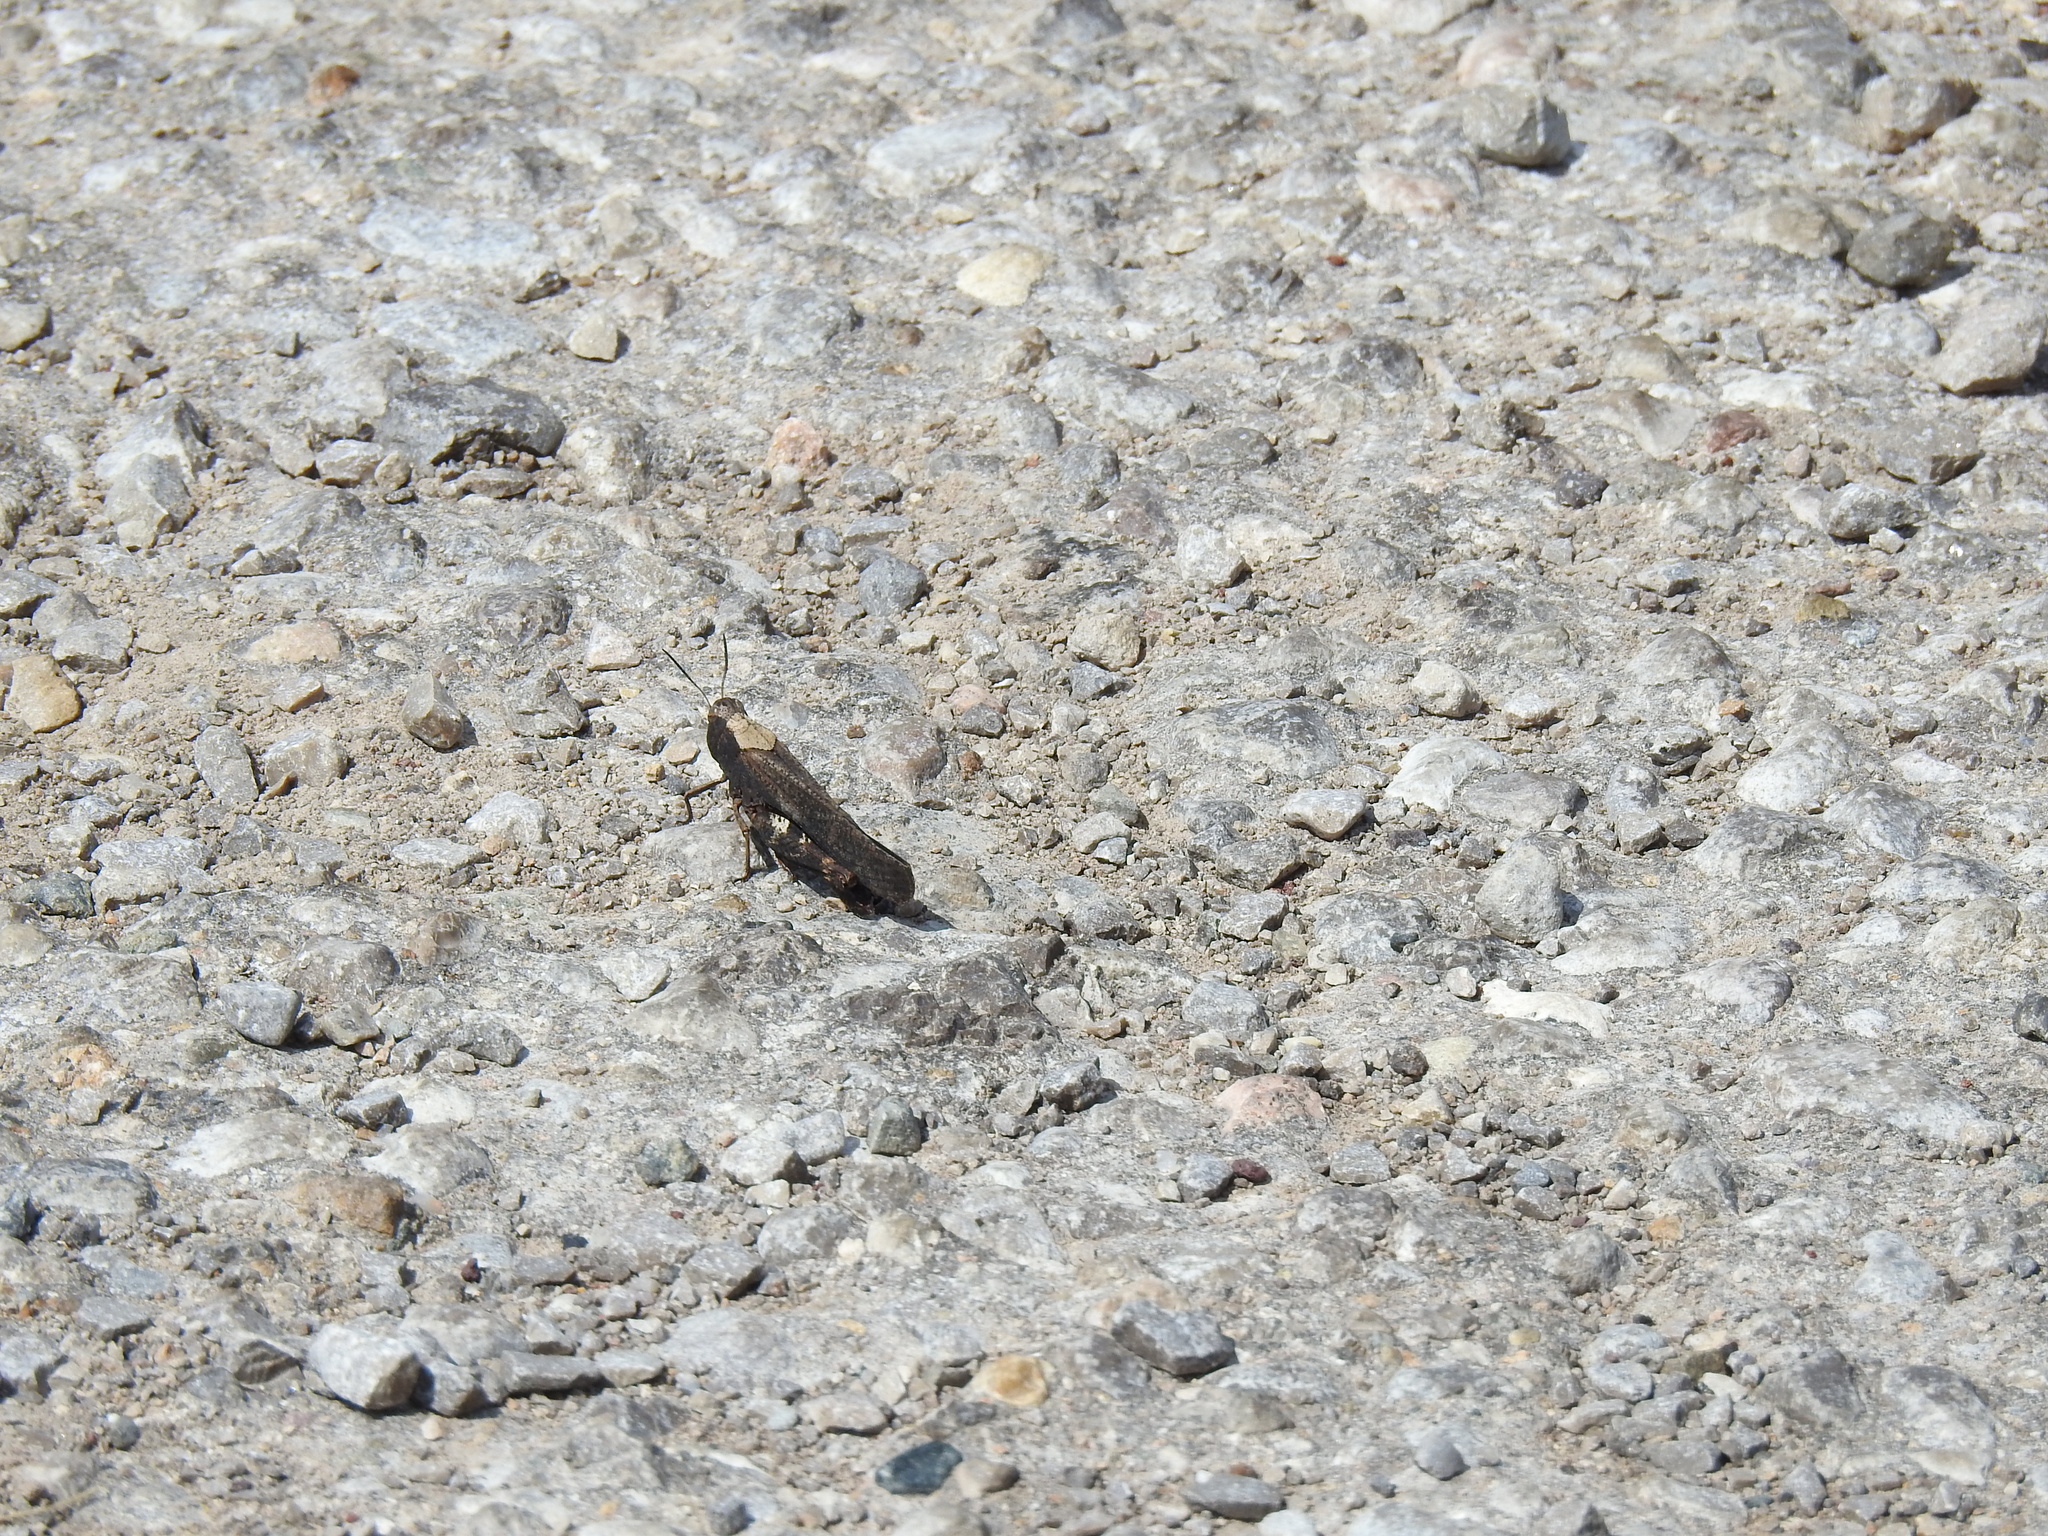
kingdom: Animalia
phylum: Arthropoda
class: Insecta
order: Orthoptera
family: Acrididae
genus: Arphia
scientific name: Arphia pseudo-nietana
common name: Red-winged grasshopper
